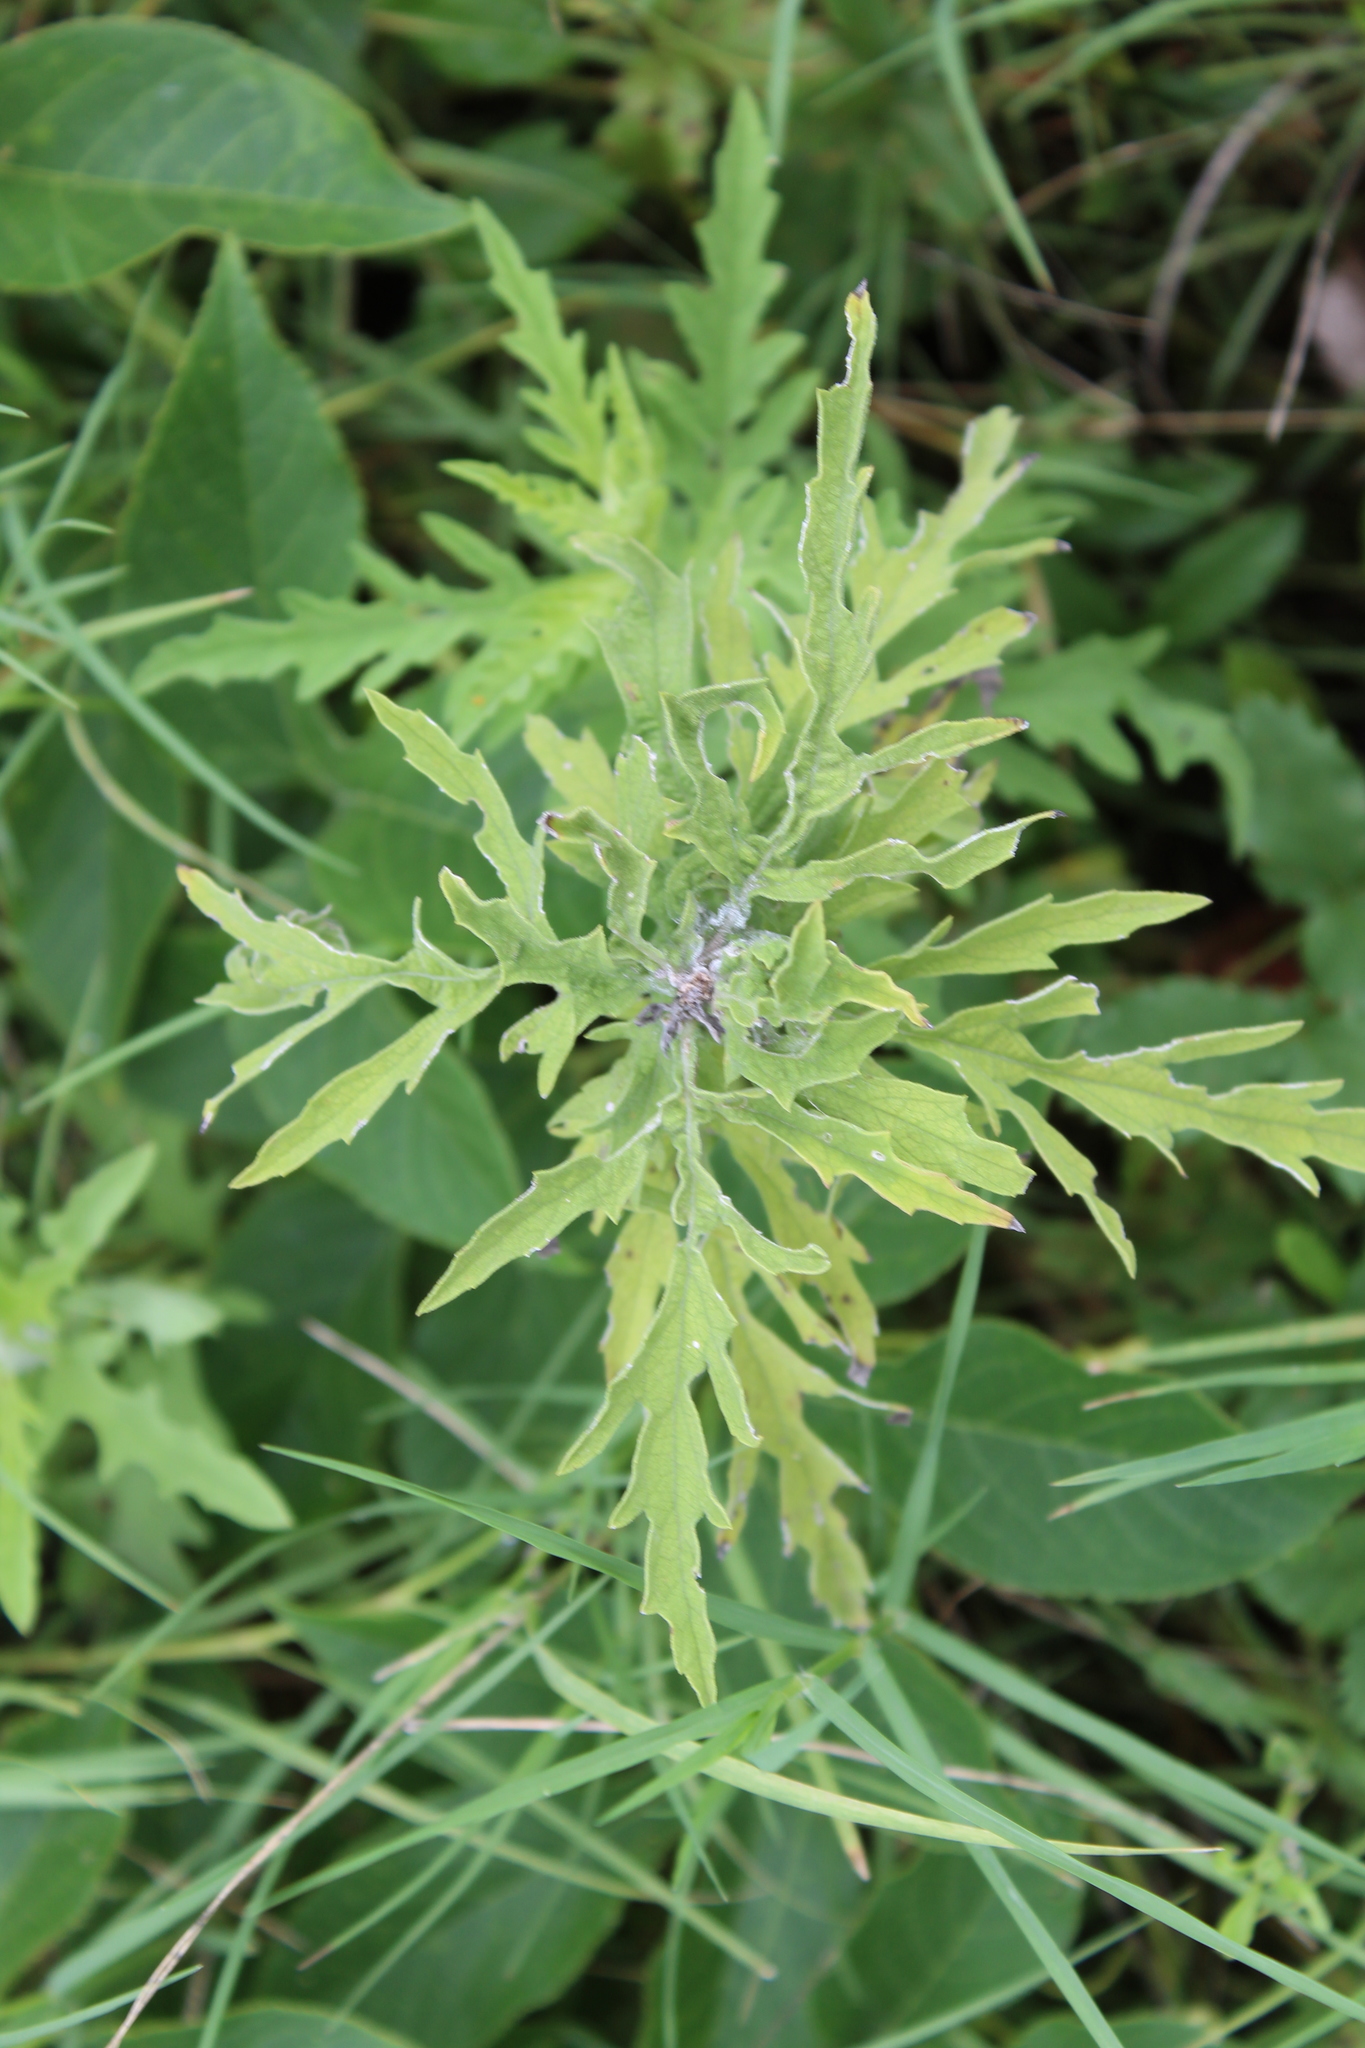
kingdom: Plantae
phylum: Tracheophyta
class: Magnoliopsida
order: Asterales
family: Asteraceae
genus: Ambrosia
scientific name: Ambrosia psilostachya
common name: Perennial ragweed
